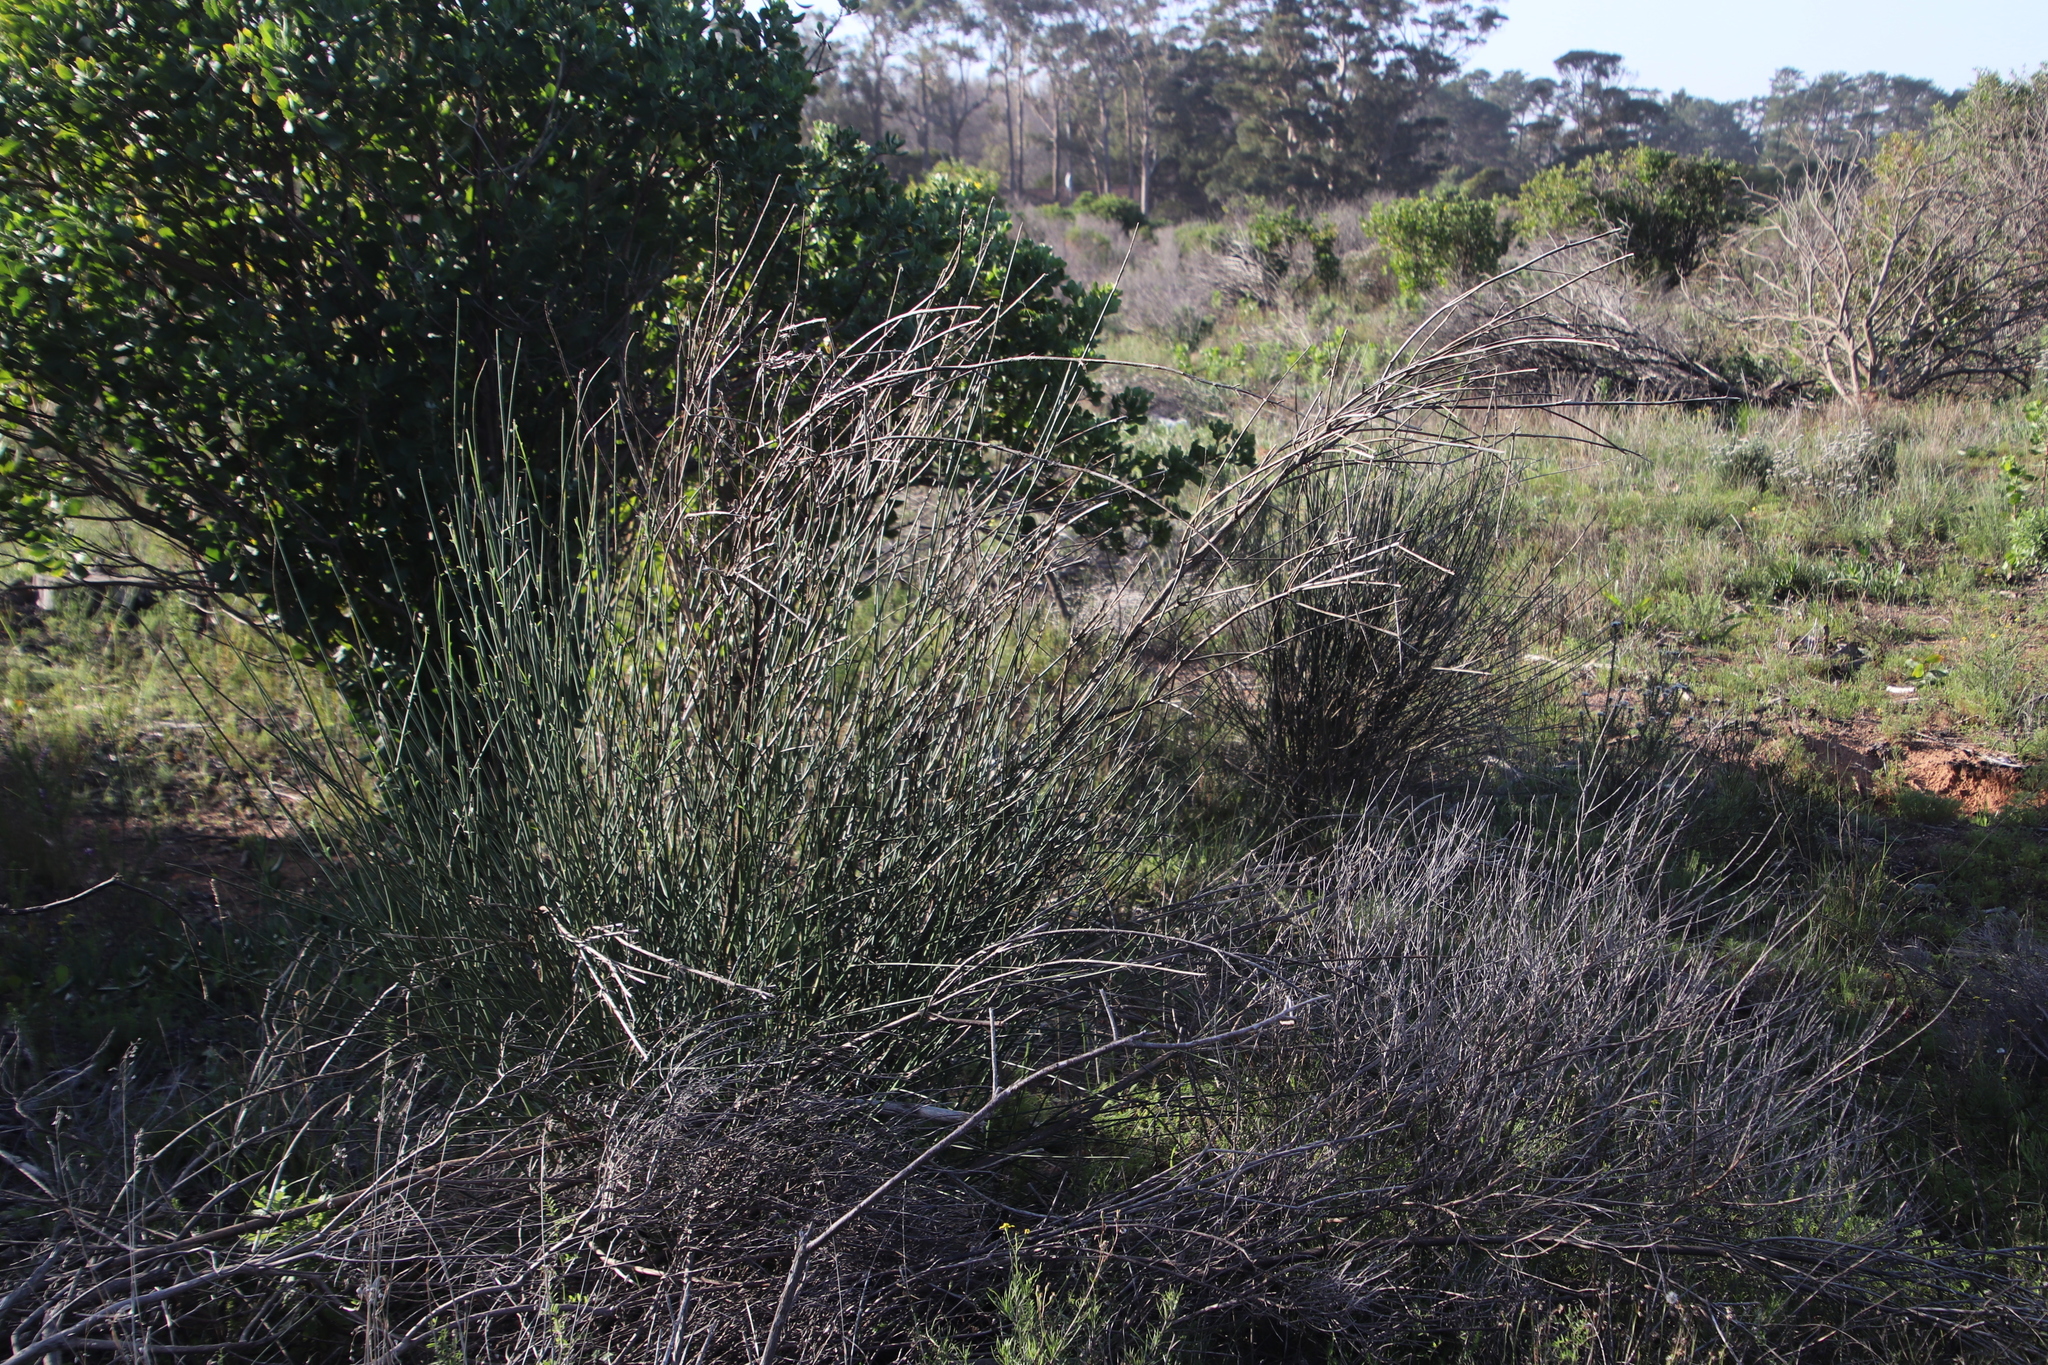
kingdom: Plantae
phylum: Tracheophyta
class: Magnoliopsida
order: Fabales
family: Fabaceae
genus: Spartium
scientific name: Spartium junceum
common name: Spanish broom
